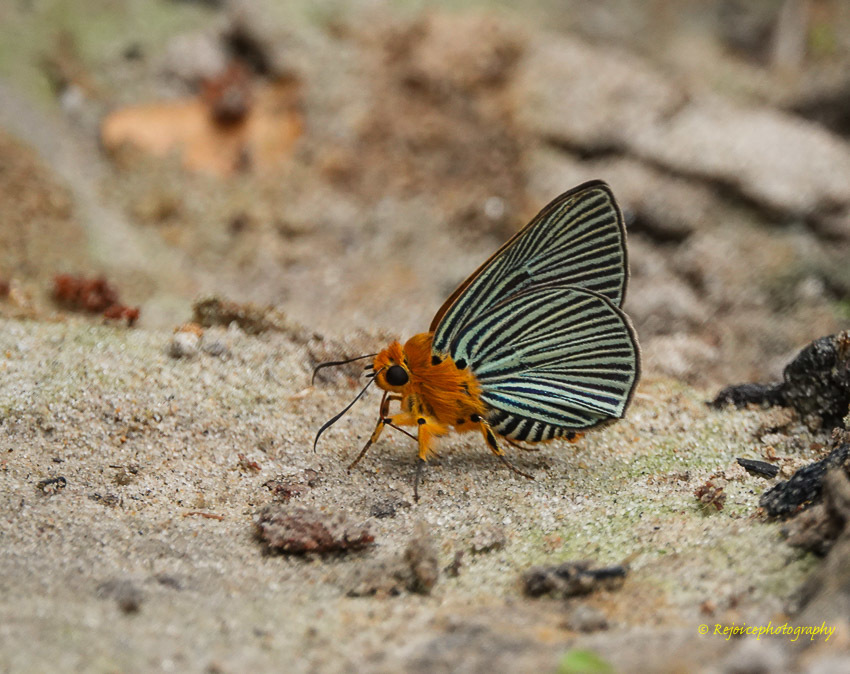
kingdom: Animalia
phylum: Arthropoda
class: Insecta
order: Lepidoptera
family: Hesperiidae
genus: Bibasis
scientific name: Bibasis amara
